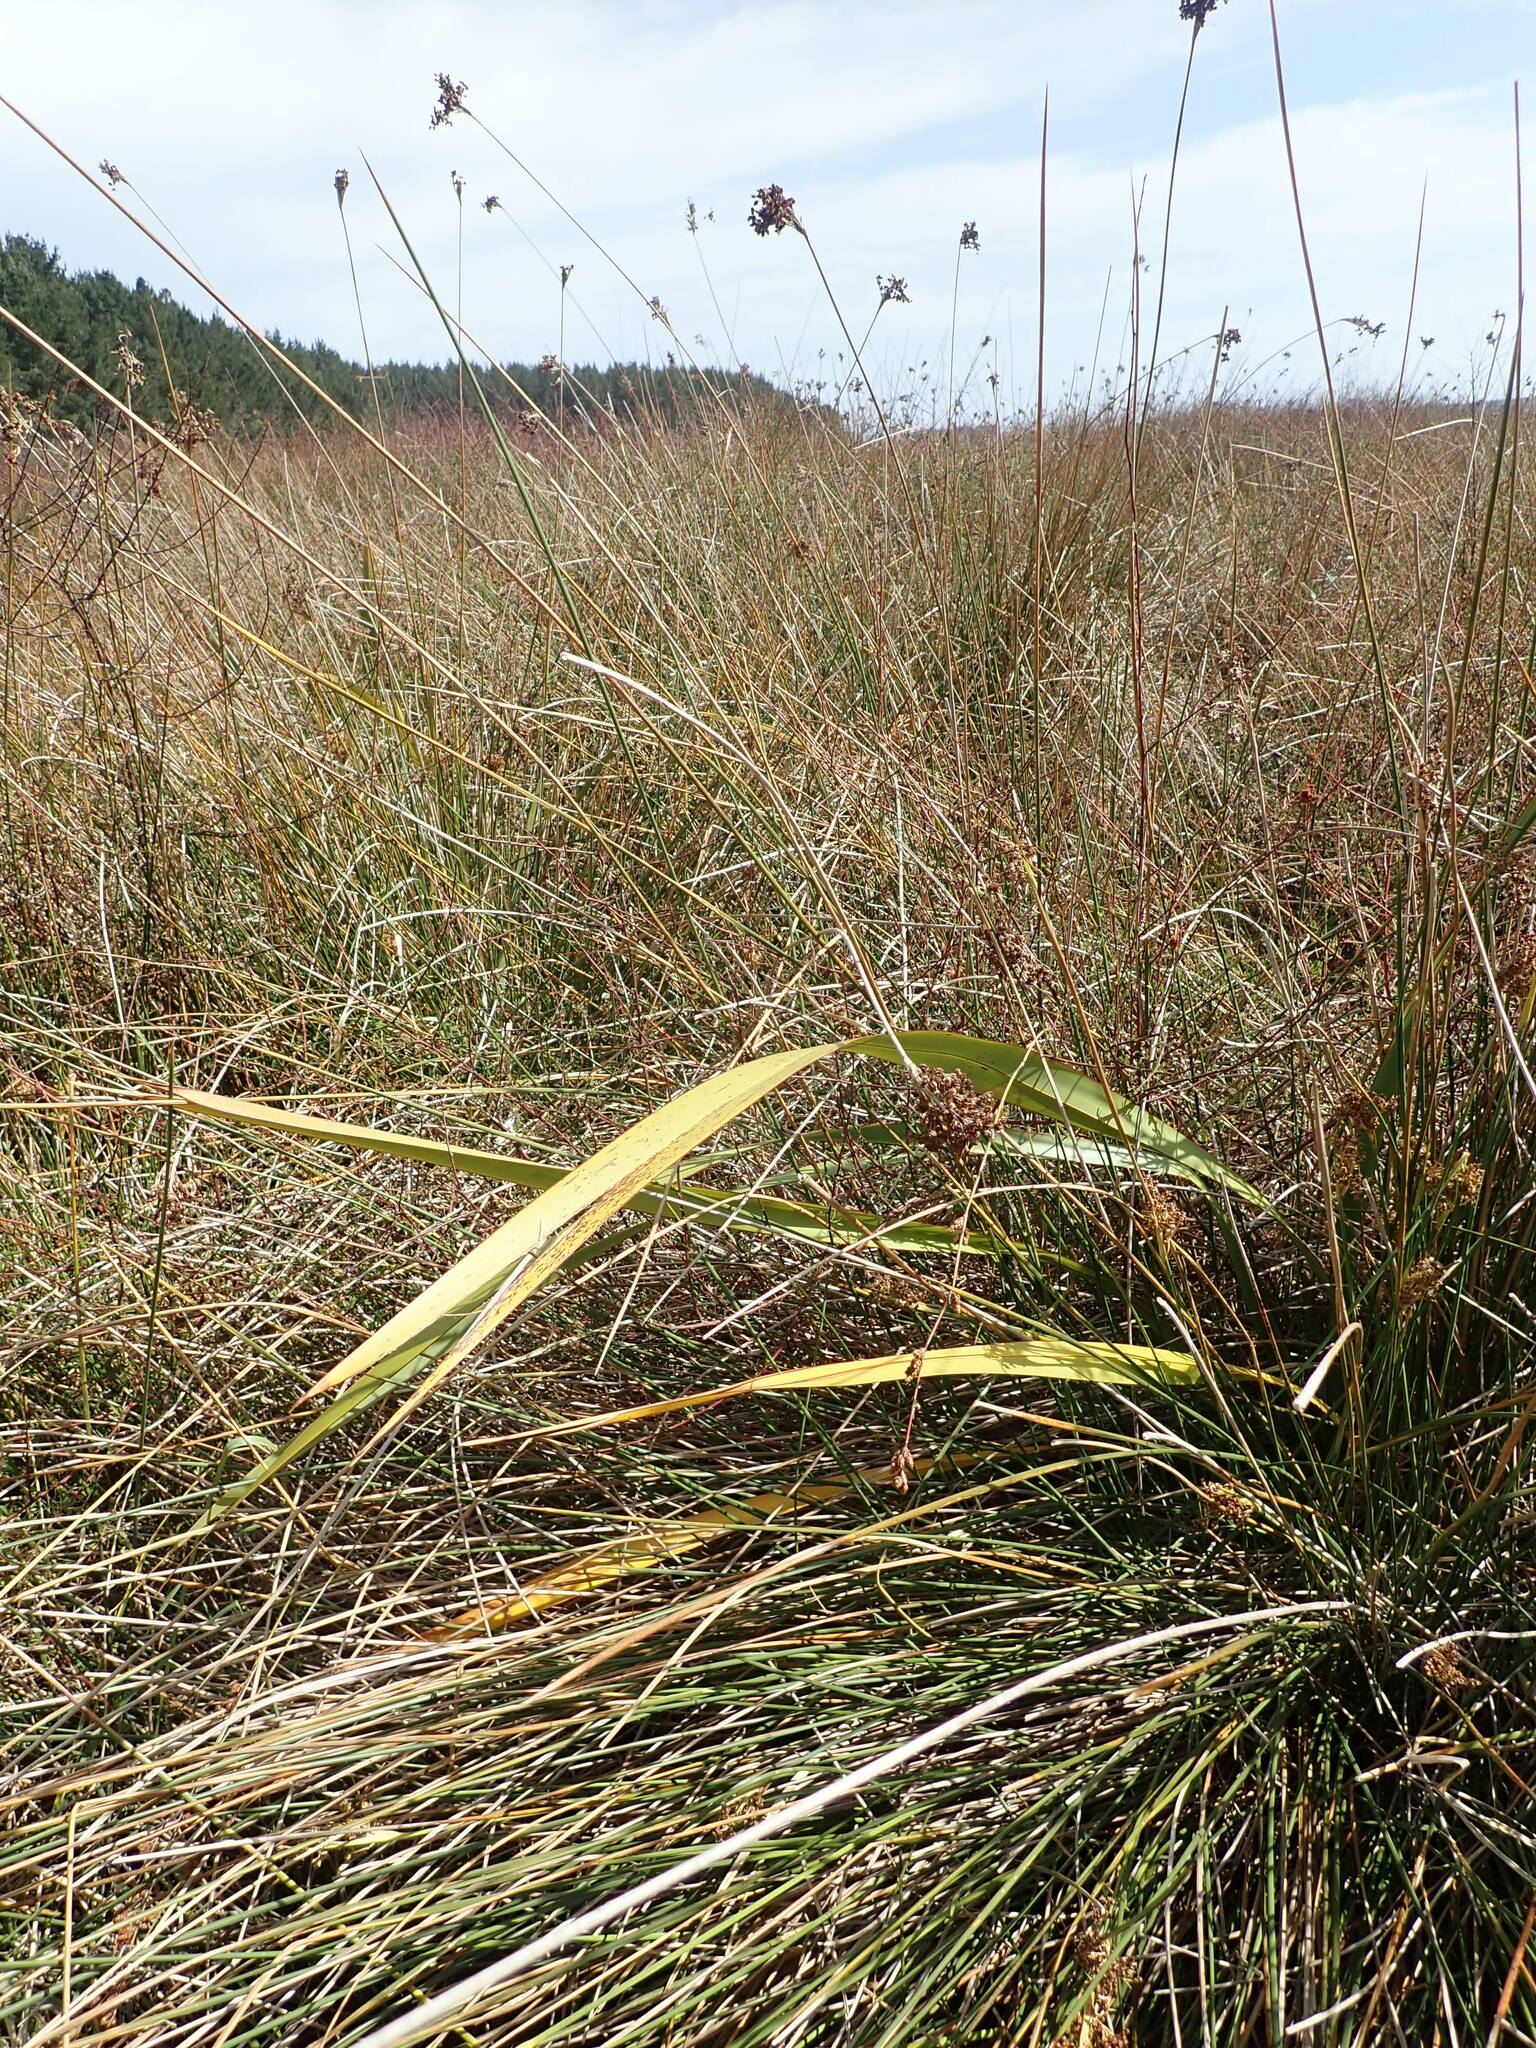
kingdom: Plantae
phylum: Tracheophyta
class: Liliopsida
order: Asparagales
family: Asphodelaceae
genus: Phormium
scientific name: Phormium tenax
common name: New zealand flax
